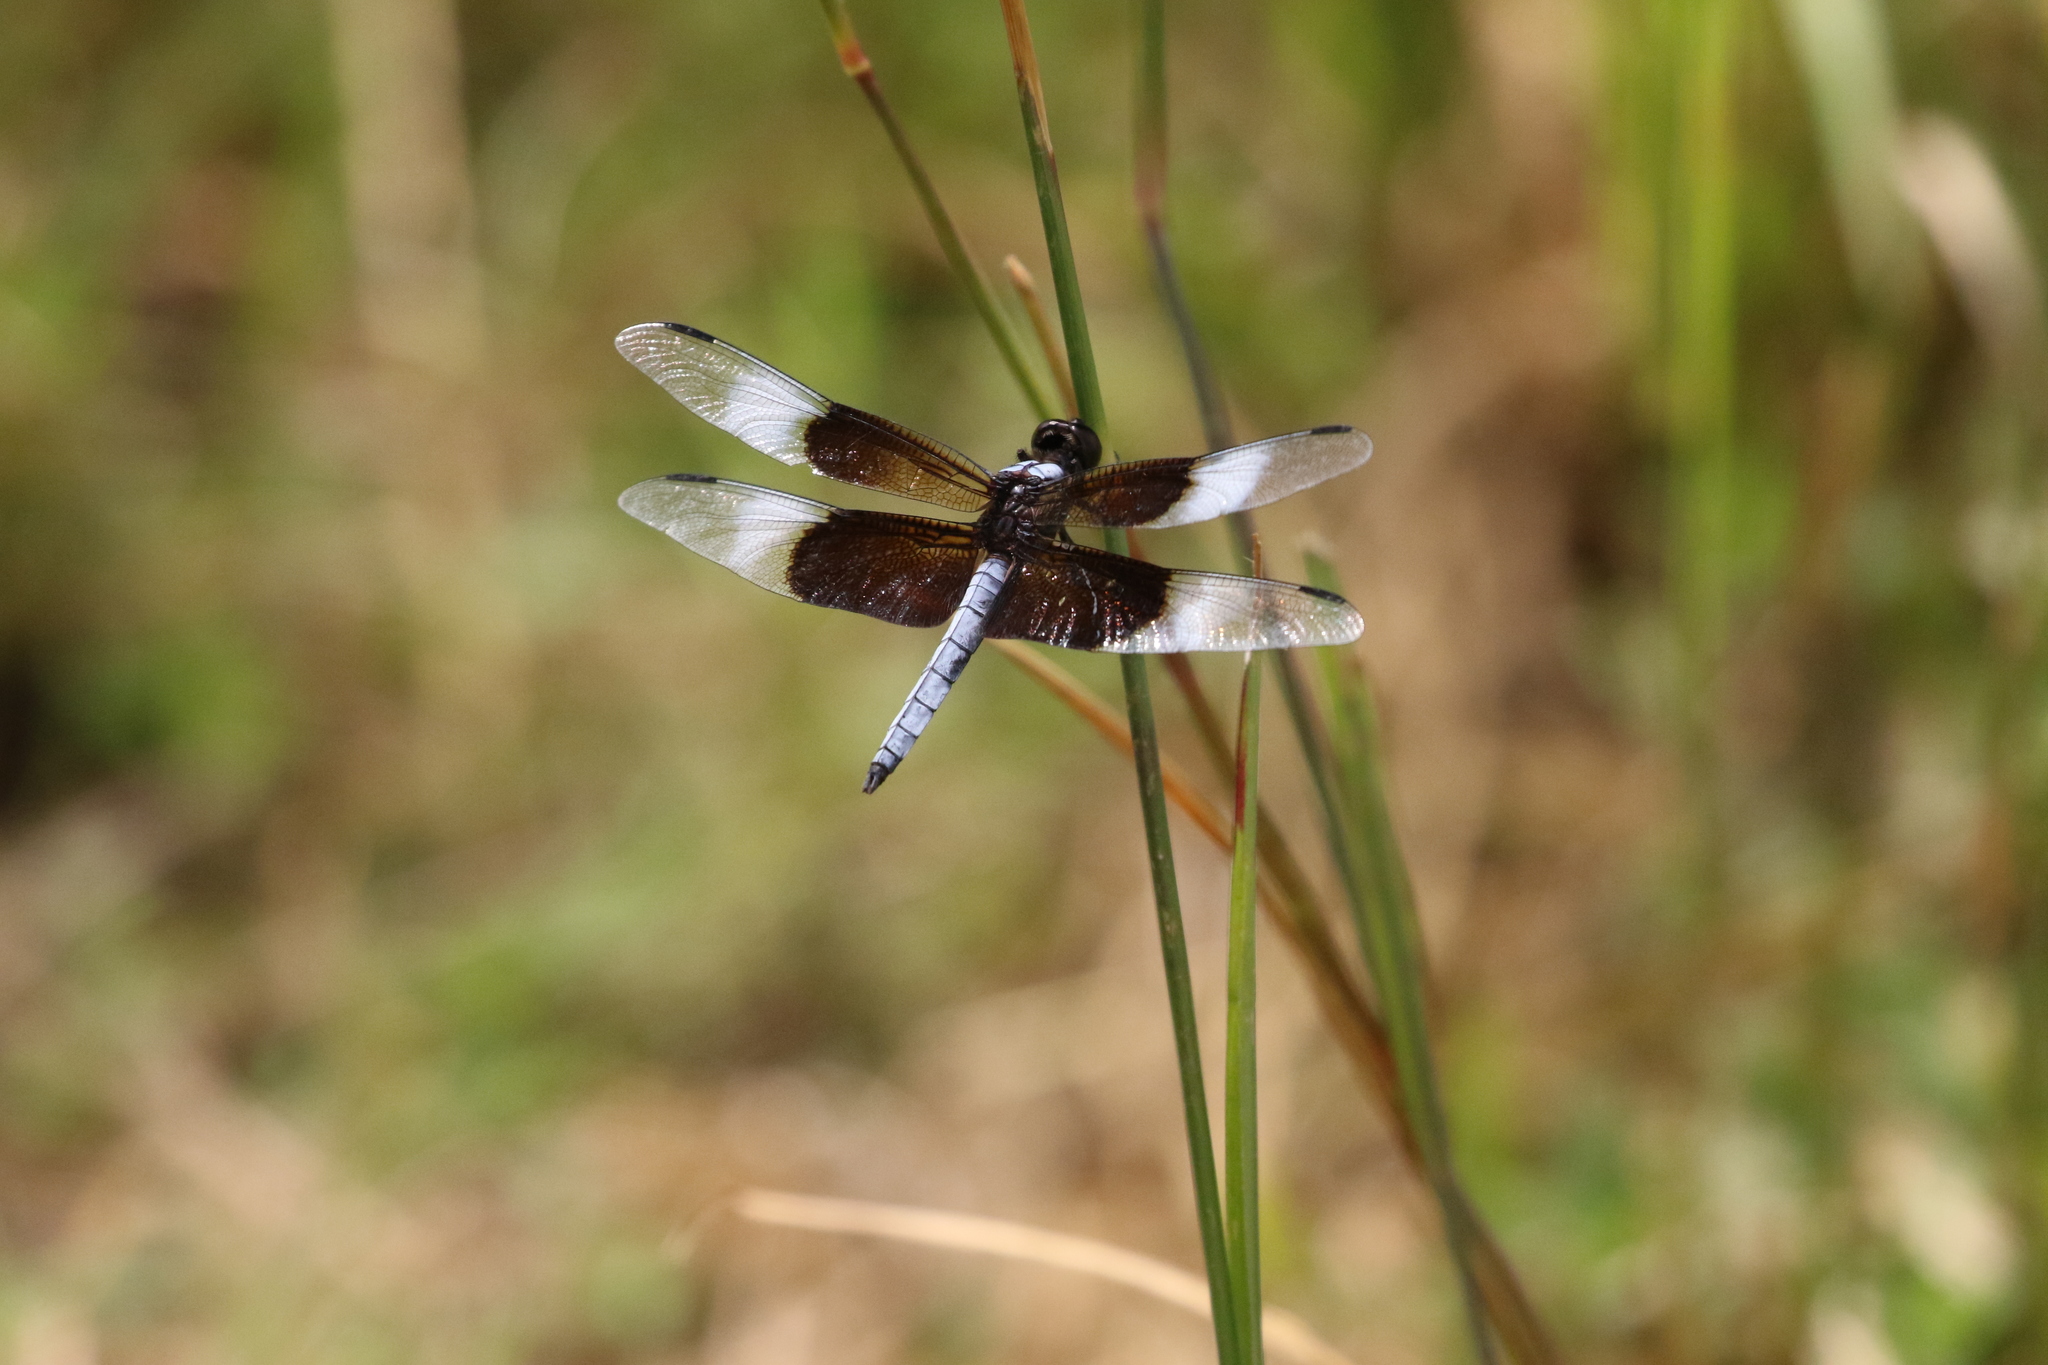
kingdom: Animalia
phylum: Arthropoda
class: Insecta
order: Odonata
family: Libellulidae
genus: Libellula
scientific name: Libellula luctuosa
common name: Widow skimmer
